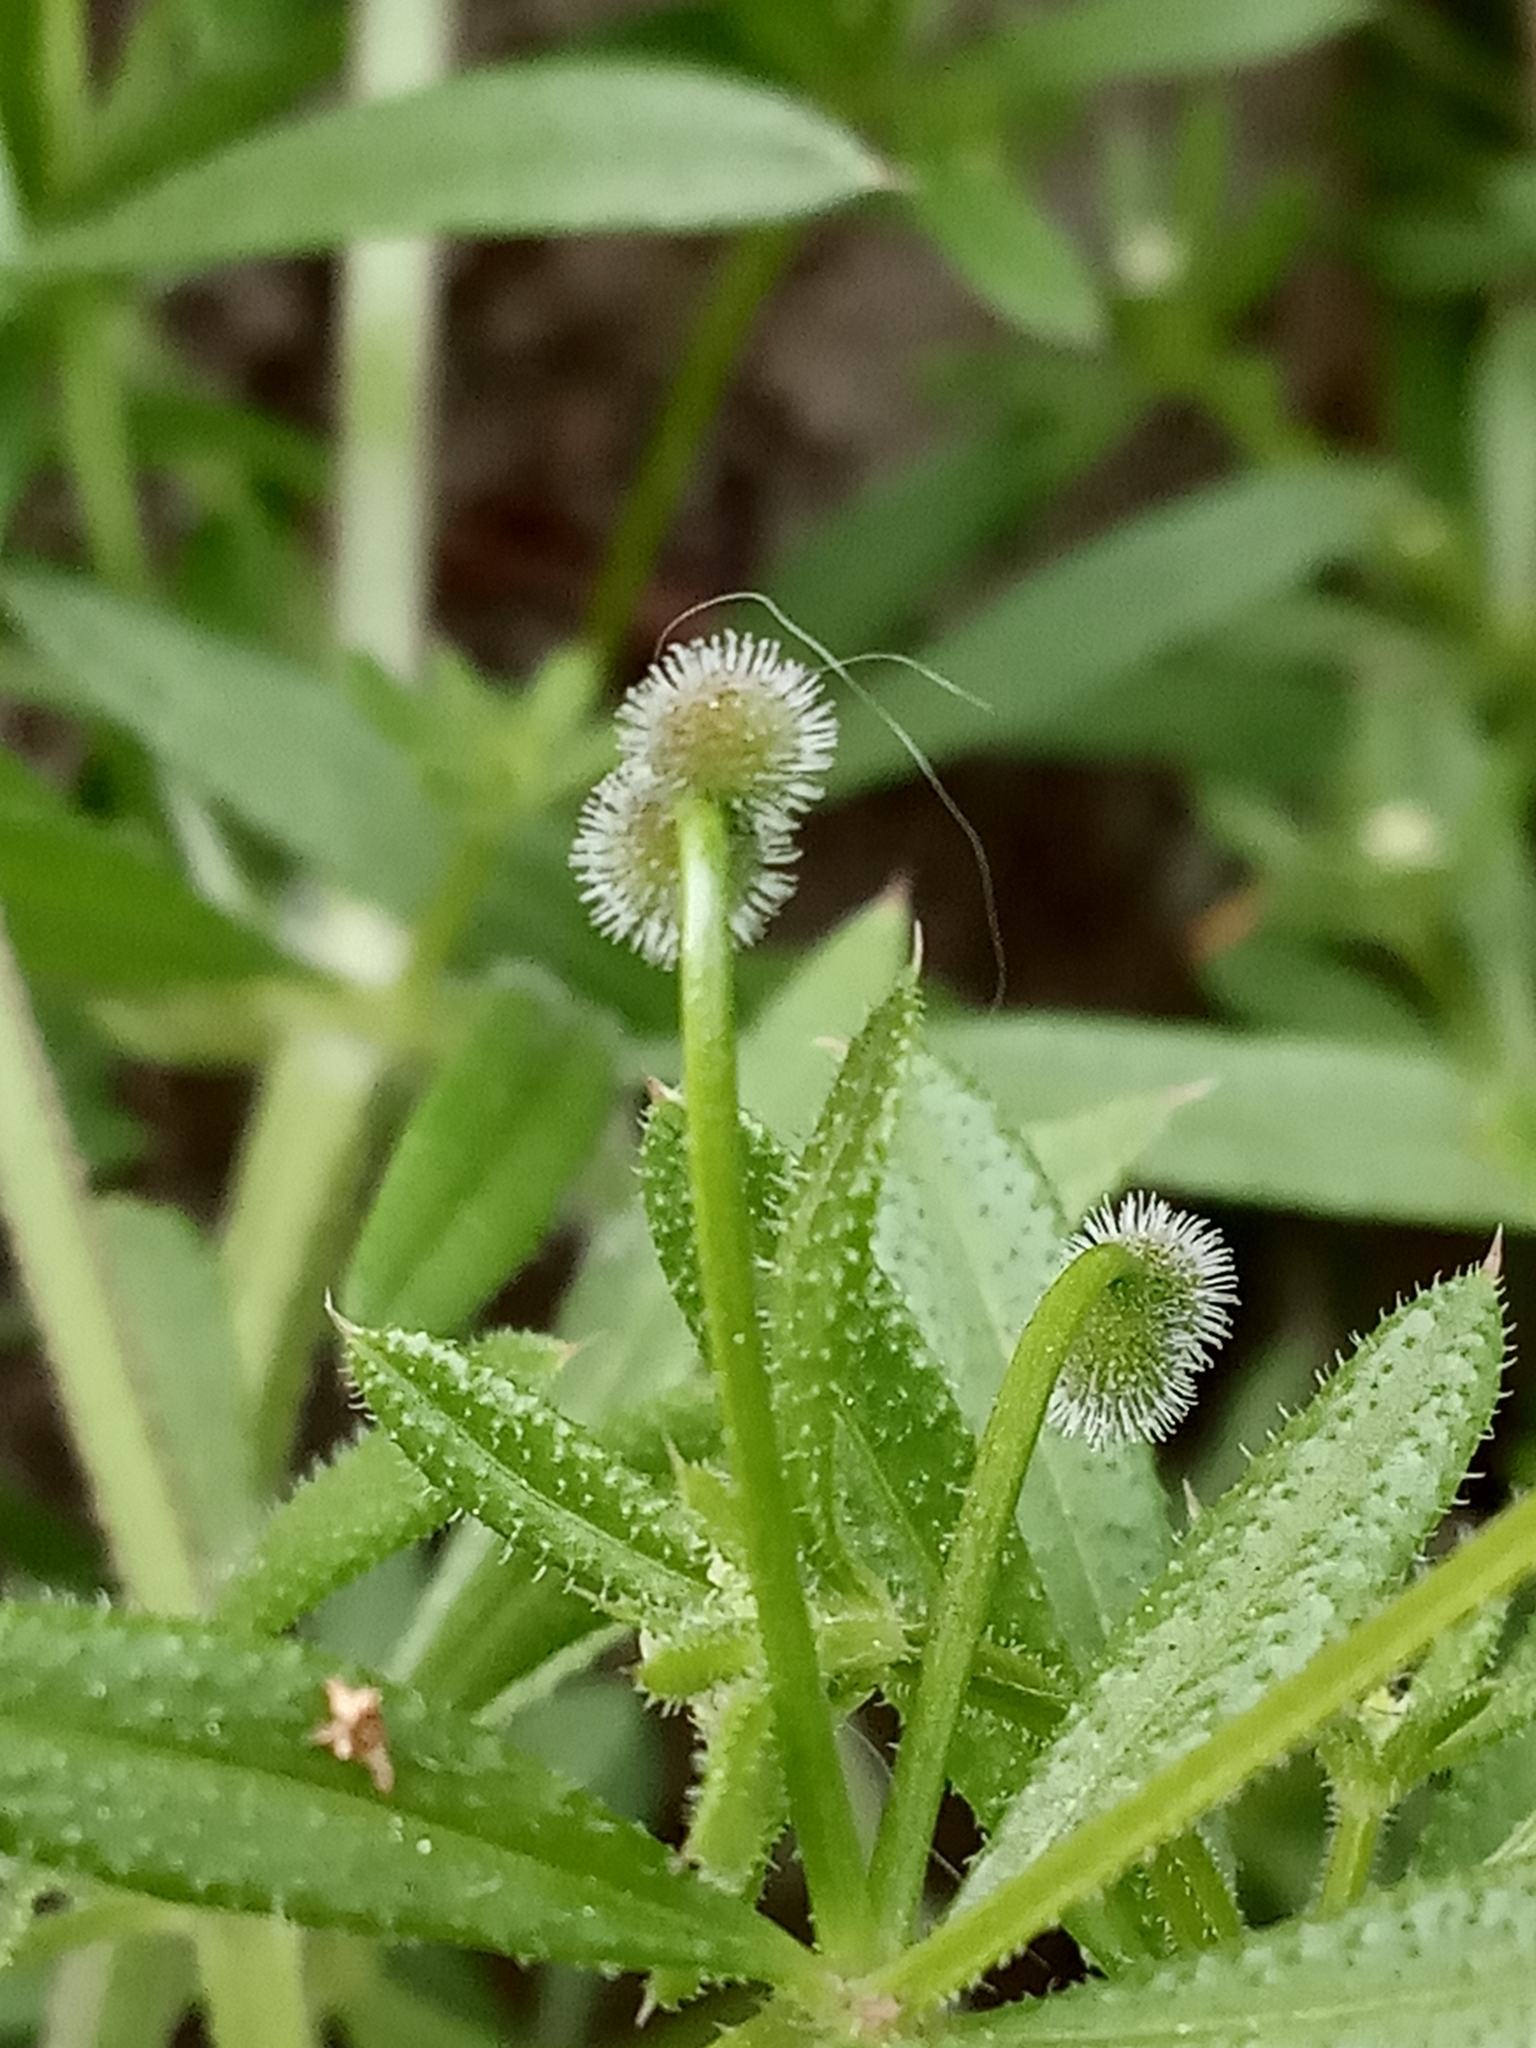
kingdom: Plantae
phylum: Tracheophyta
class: Magnoliopsida
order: Gentianales
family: Rubiaceae
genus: Galium
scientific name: Galium aparine
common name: Cleavers
